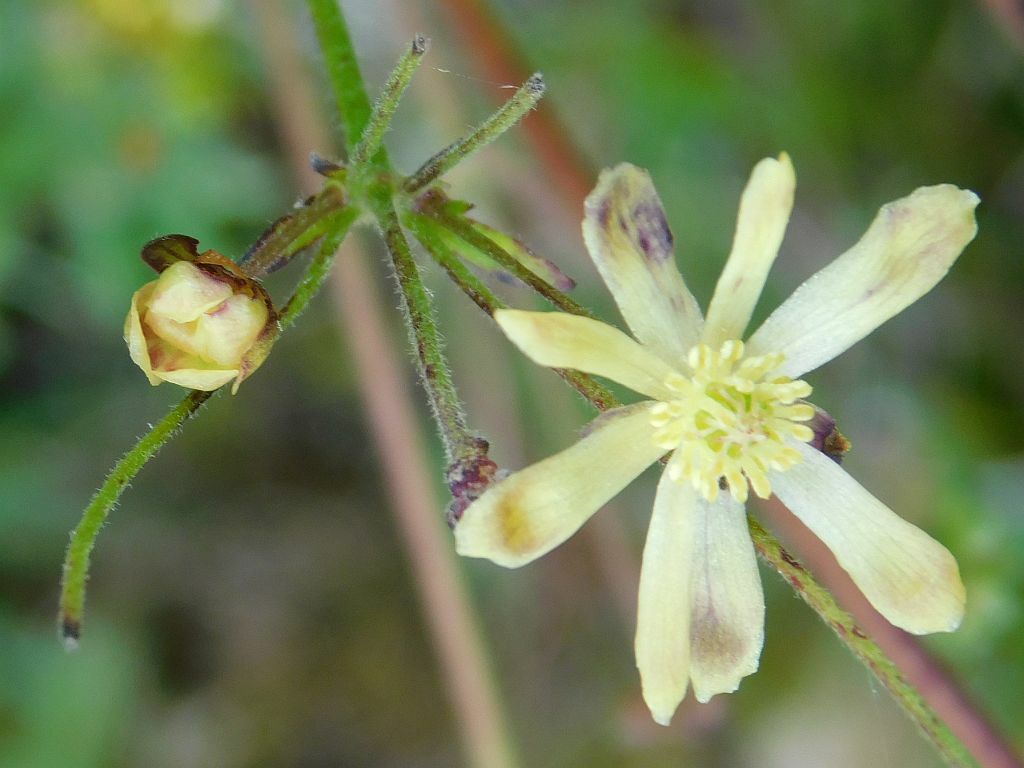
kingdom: Plantae
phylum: Tracheophyta
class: Magnoliopsida
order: Ranunculales
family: Ranunculaceae
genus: Knowltonia
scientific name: Knowltonia anemonoides
